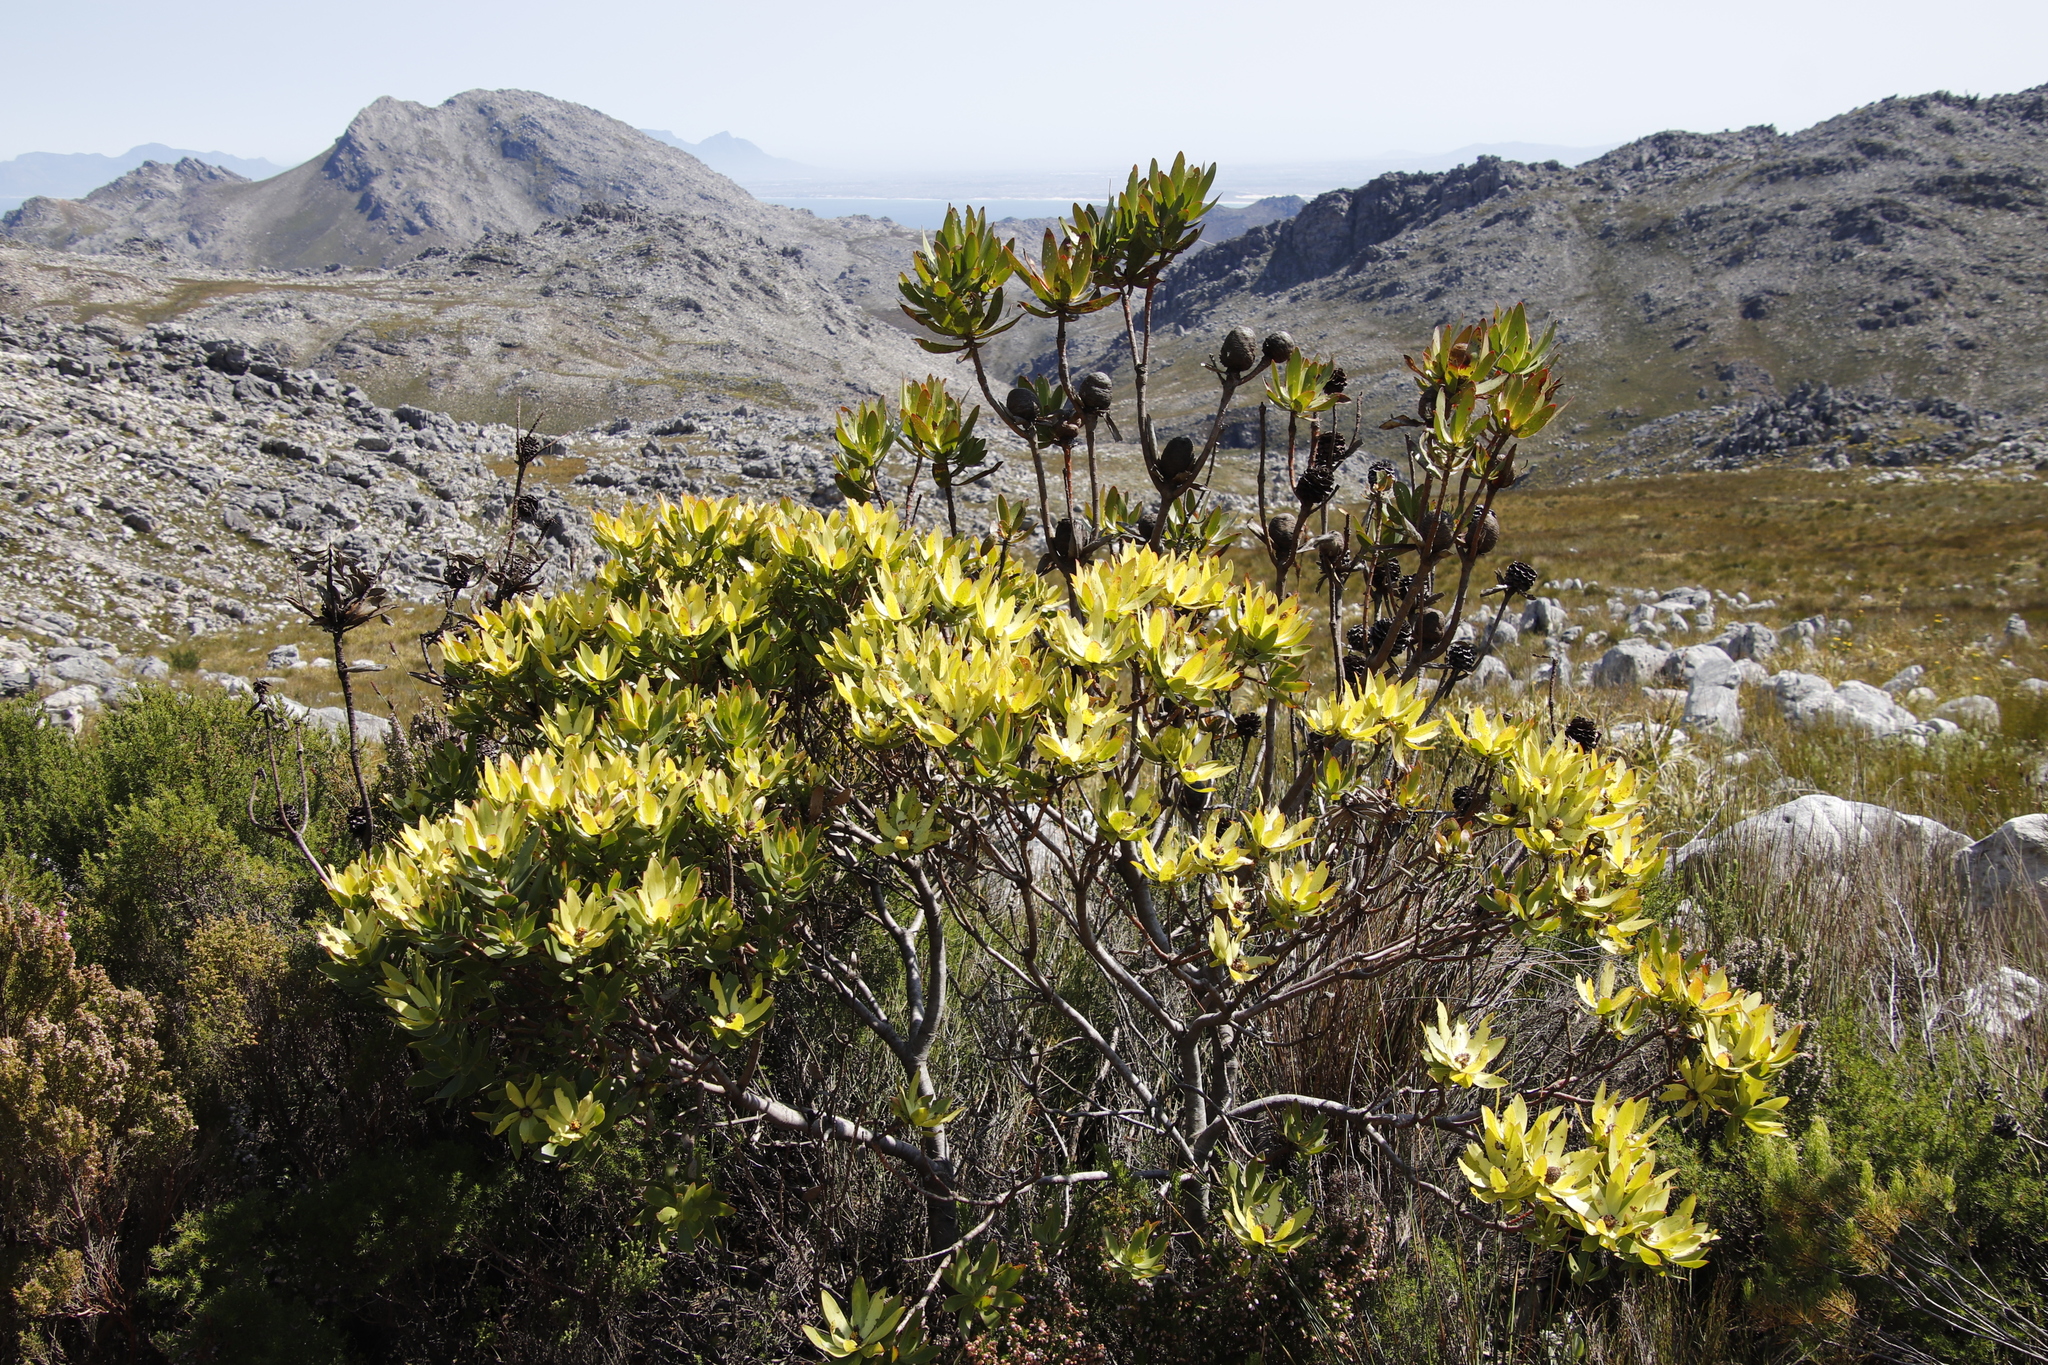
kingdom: Plantae
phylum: Tracheophyta
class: Magnoliopsida
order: Proteales
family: Proteaceae
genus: Leucadendron
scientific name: Leucadendron gandogeri
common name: Broad-leaf conebush
